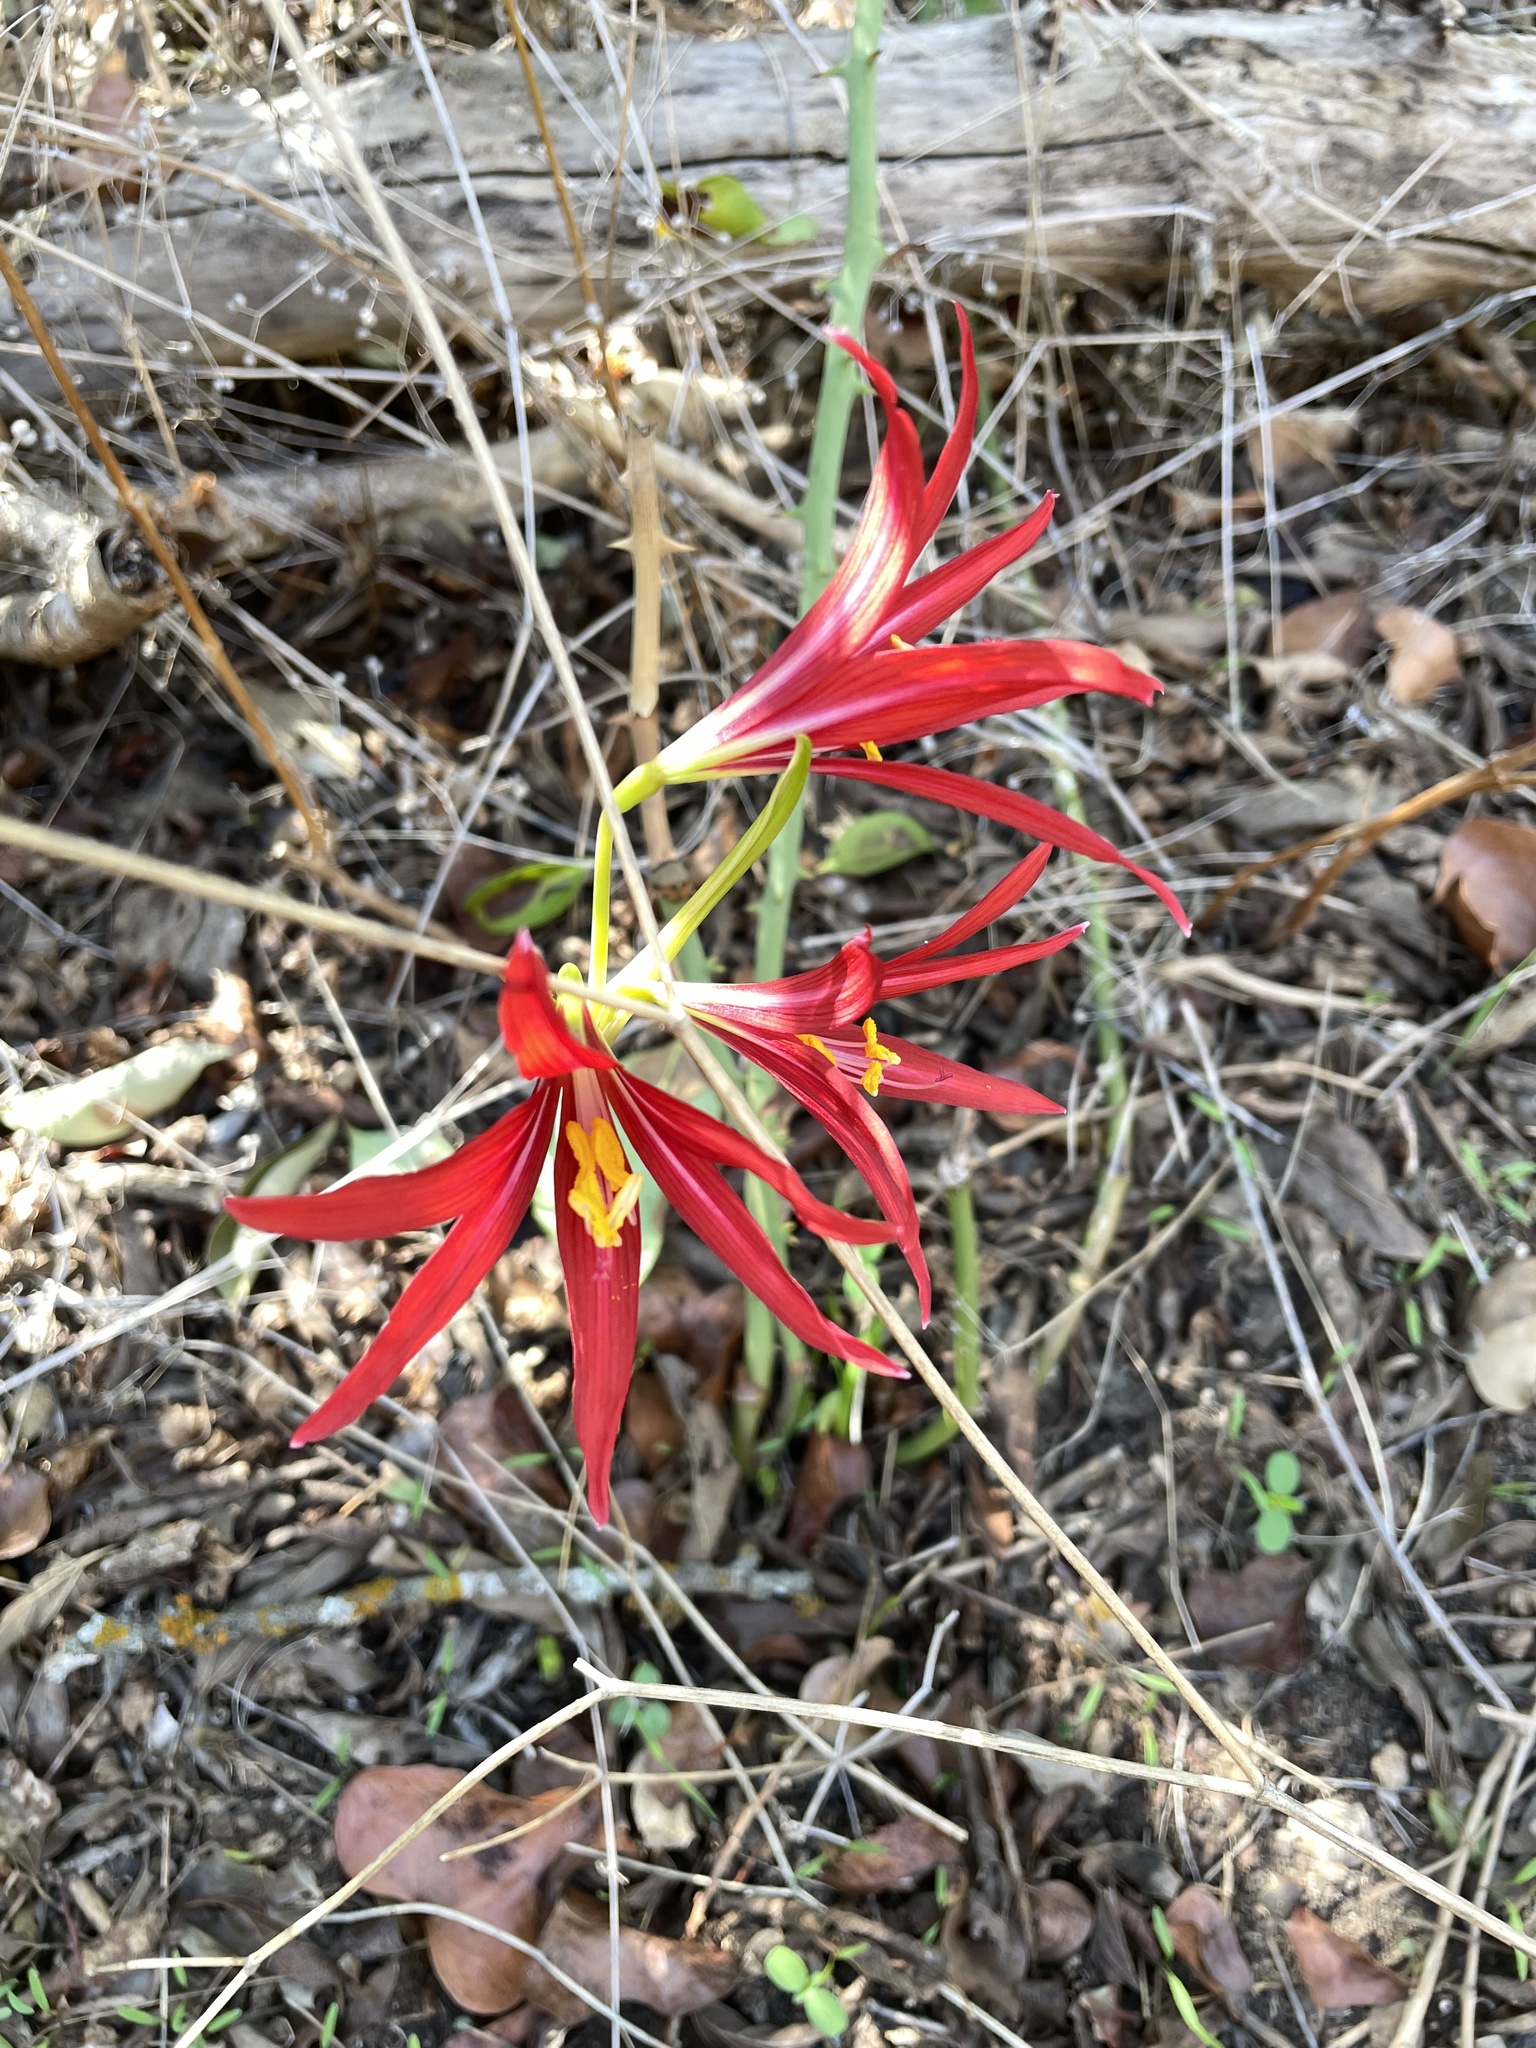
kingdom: Plantae
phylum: Tracheophyta
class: Liliopsida
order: Asparagales
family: Amaryllidaceae
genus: Zephyranthes
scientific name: Zephyranthes bifida
